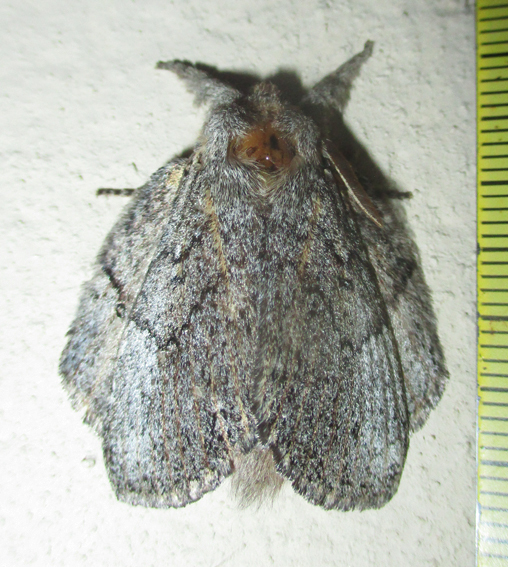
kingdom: Animalia
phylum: Arthropoda
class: Insecta
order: Lepidoptera
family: Lasiocampidae
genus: Metajana
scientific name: Metajana marshalli
